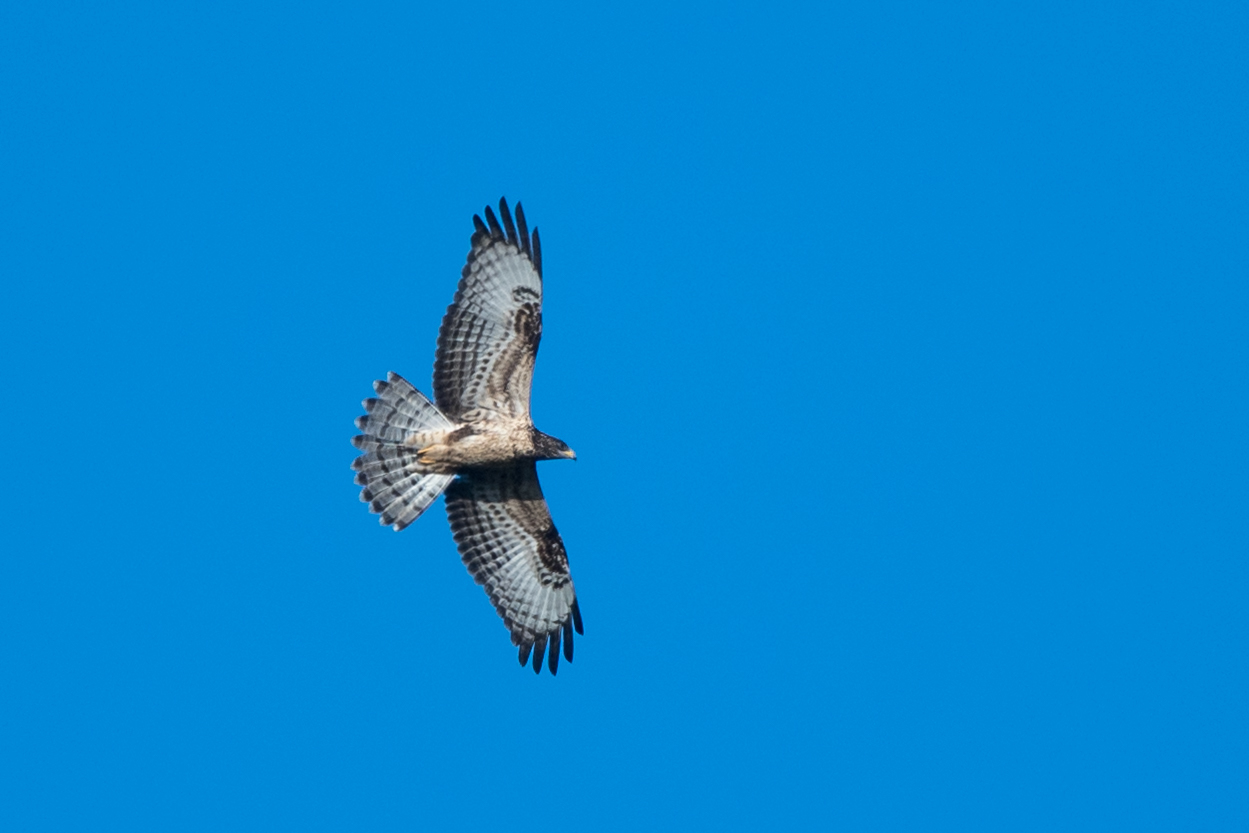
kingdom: Animalia
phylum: Chordata
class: Aves
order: Accipitriformes
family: Accipitridae
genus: Pernis
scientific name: Pernis apivorus
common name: European honey buzzard
